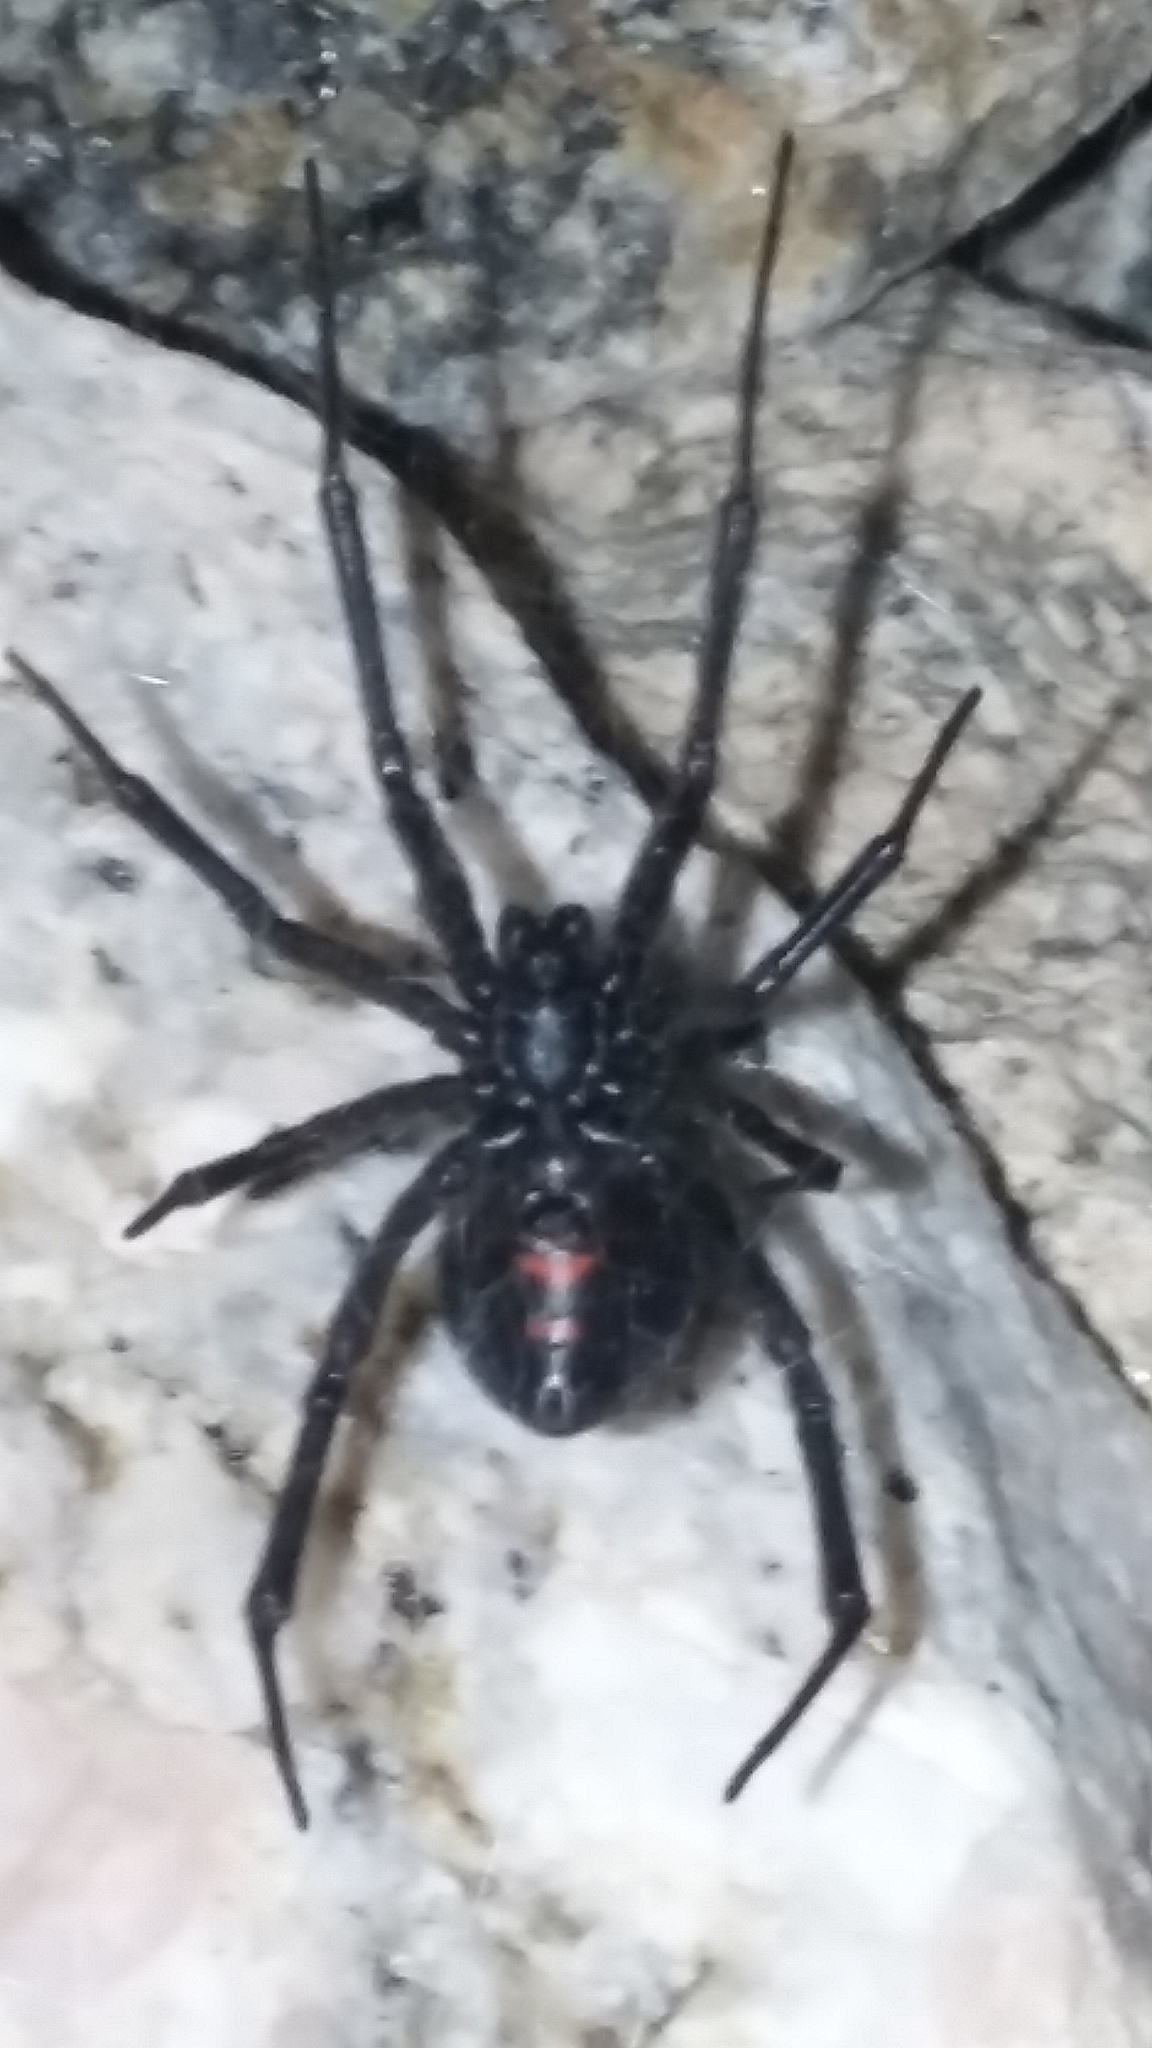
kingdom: Animalia
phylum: Arthropoda
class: Arachnida
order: Araneae
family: Theridiidae
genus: Latrodectus
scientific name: Latrodectus hesperus
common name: Western black widow
